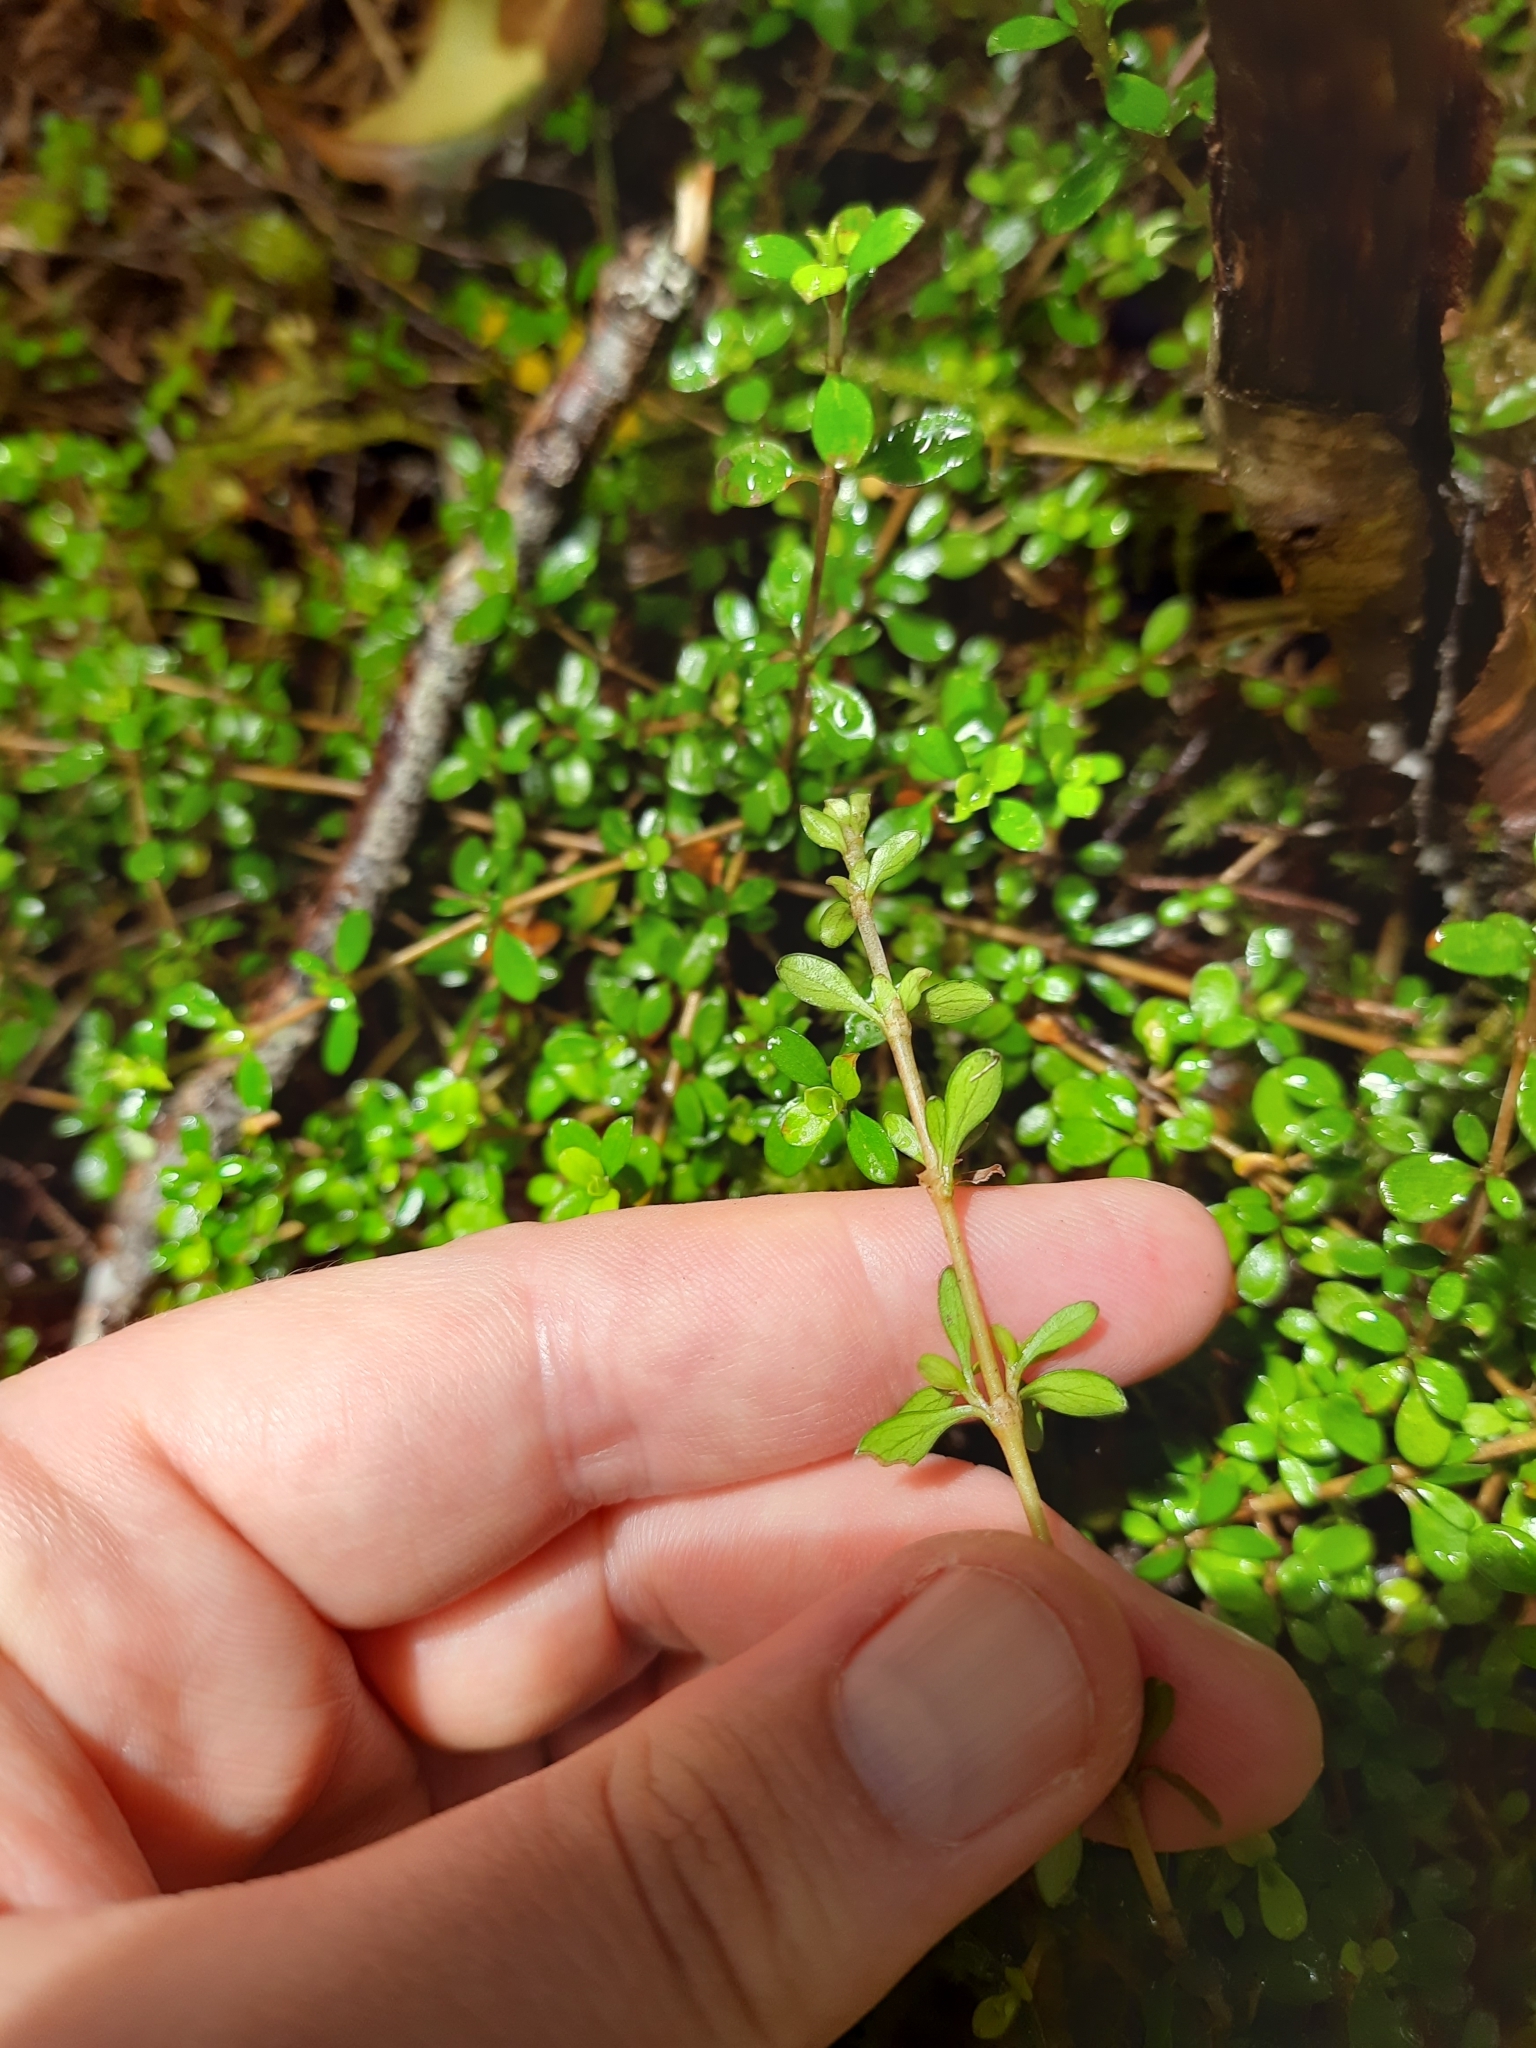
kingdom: Plantae
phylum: Tracheophyta
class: Magnoliopsida
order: Gentianales
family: Rubiaceae
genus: Coprosma
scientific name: Coprosma depressa
